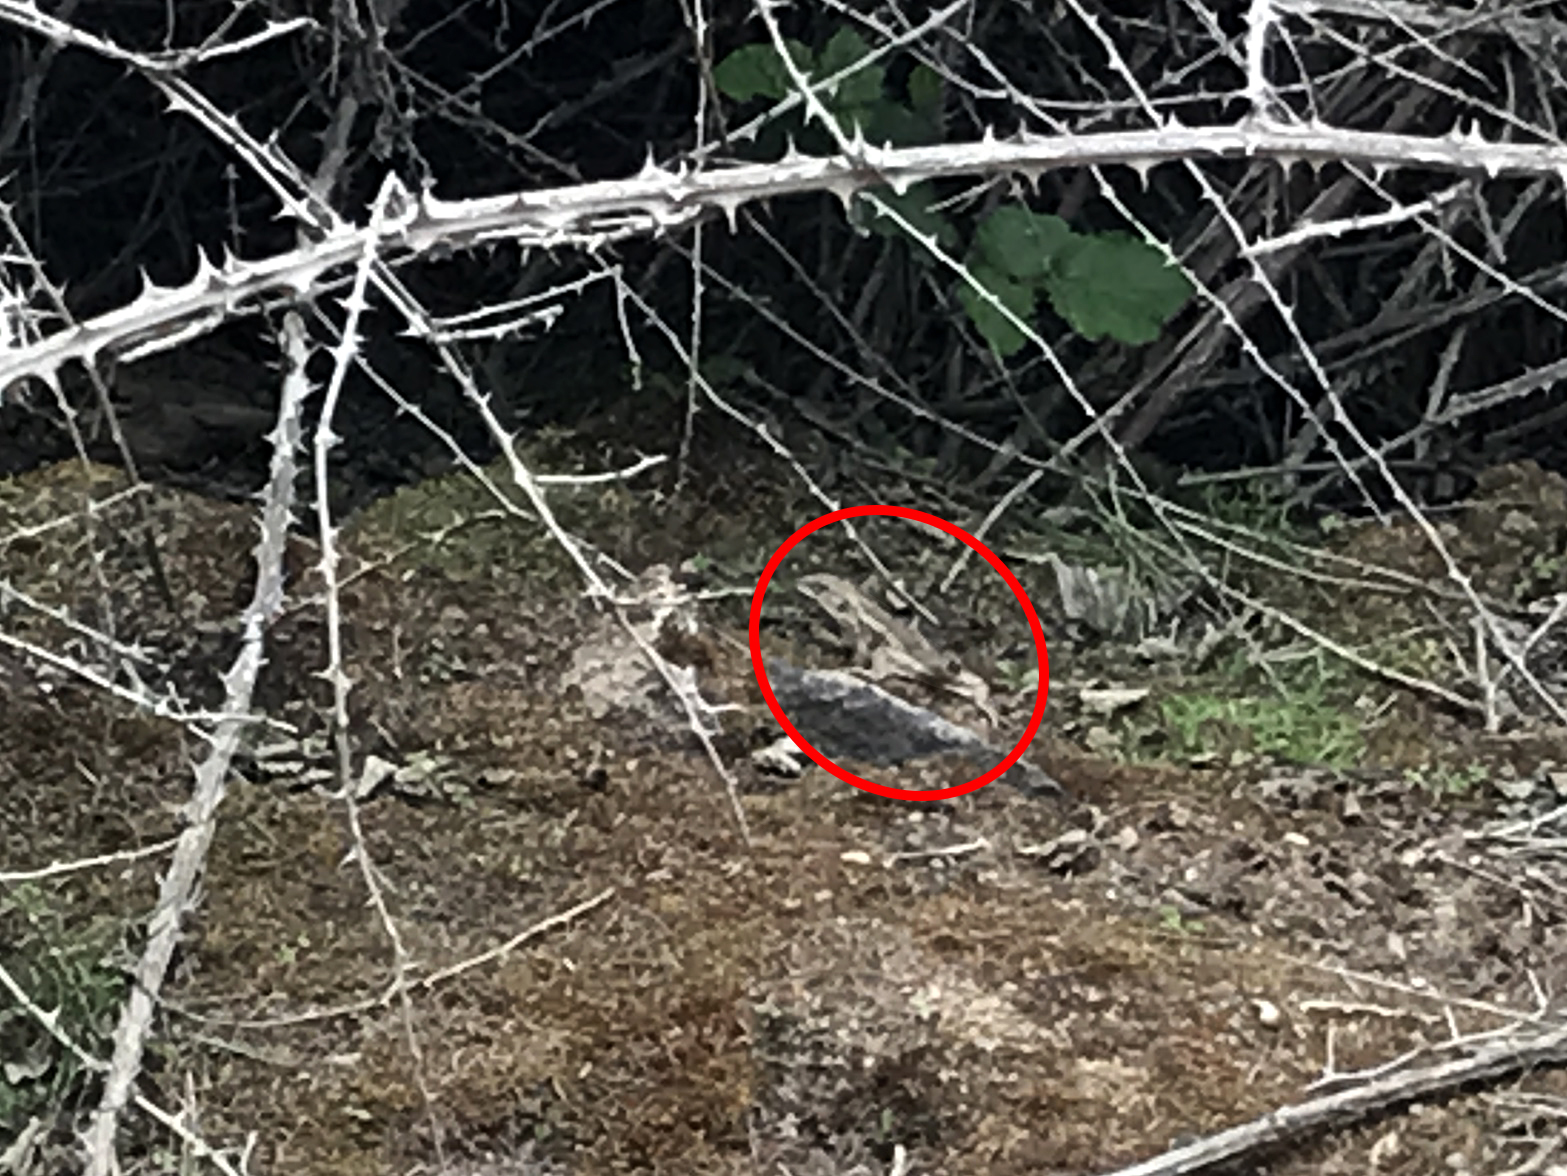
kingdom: Animalia
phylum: Chordata
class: Squamata
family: Liolaemidae
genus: Liolaemus
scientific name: Liolaemus chiliensis
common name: Chilean tree iguana
